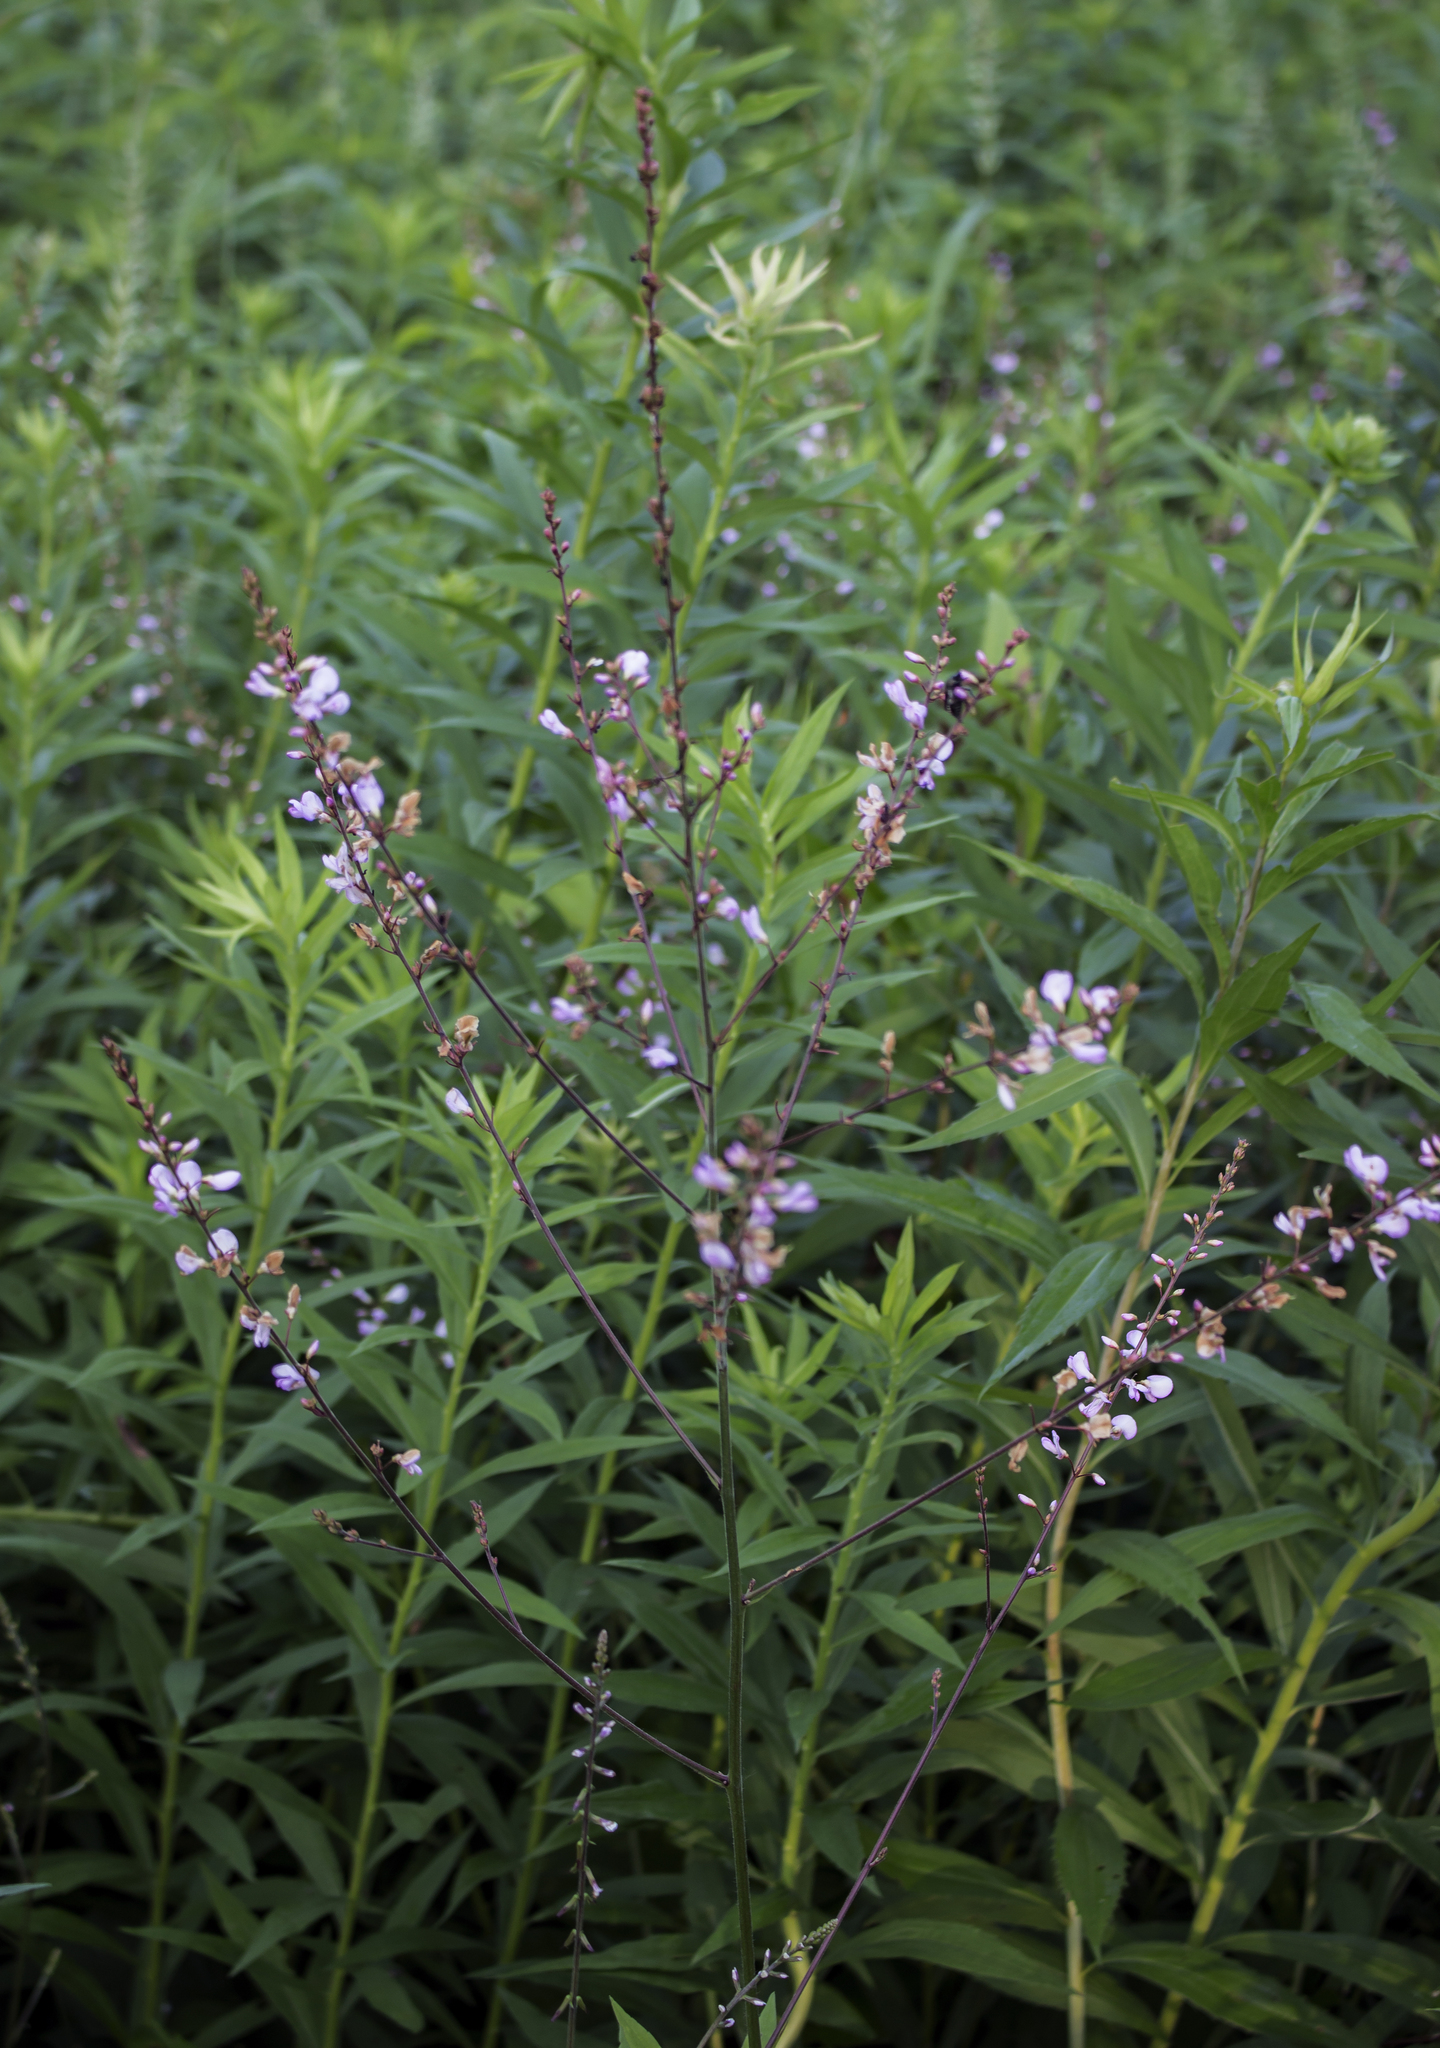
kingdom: Plantae
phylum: Tracheophyta
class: Magnoliopsida
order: Fabales
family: Fabaceae
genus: Hylodesmum
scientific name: Hylodesmum glutinosum
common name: Clustered-leaved tick-trefoil
